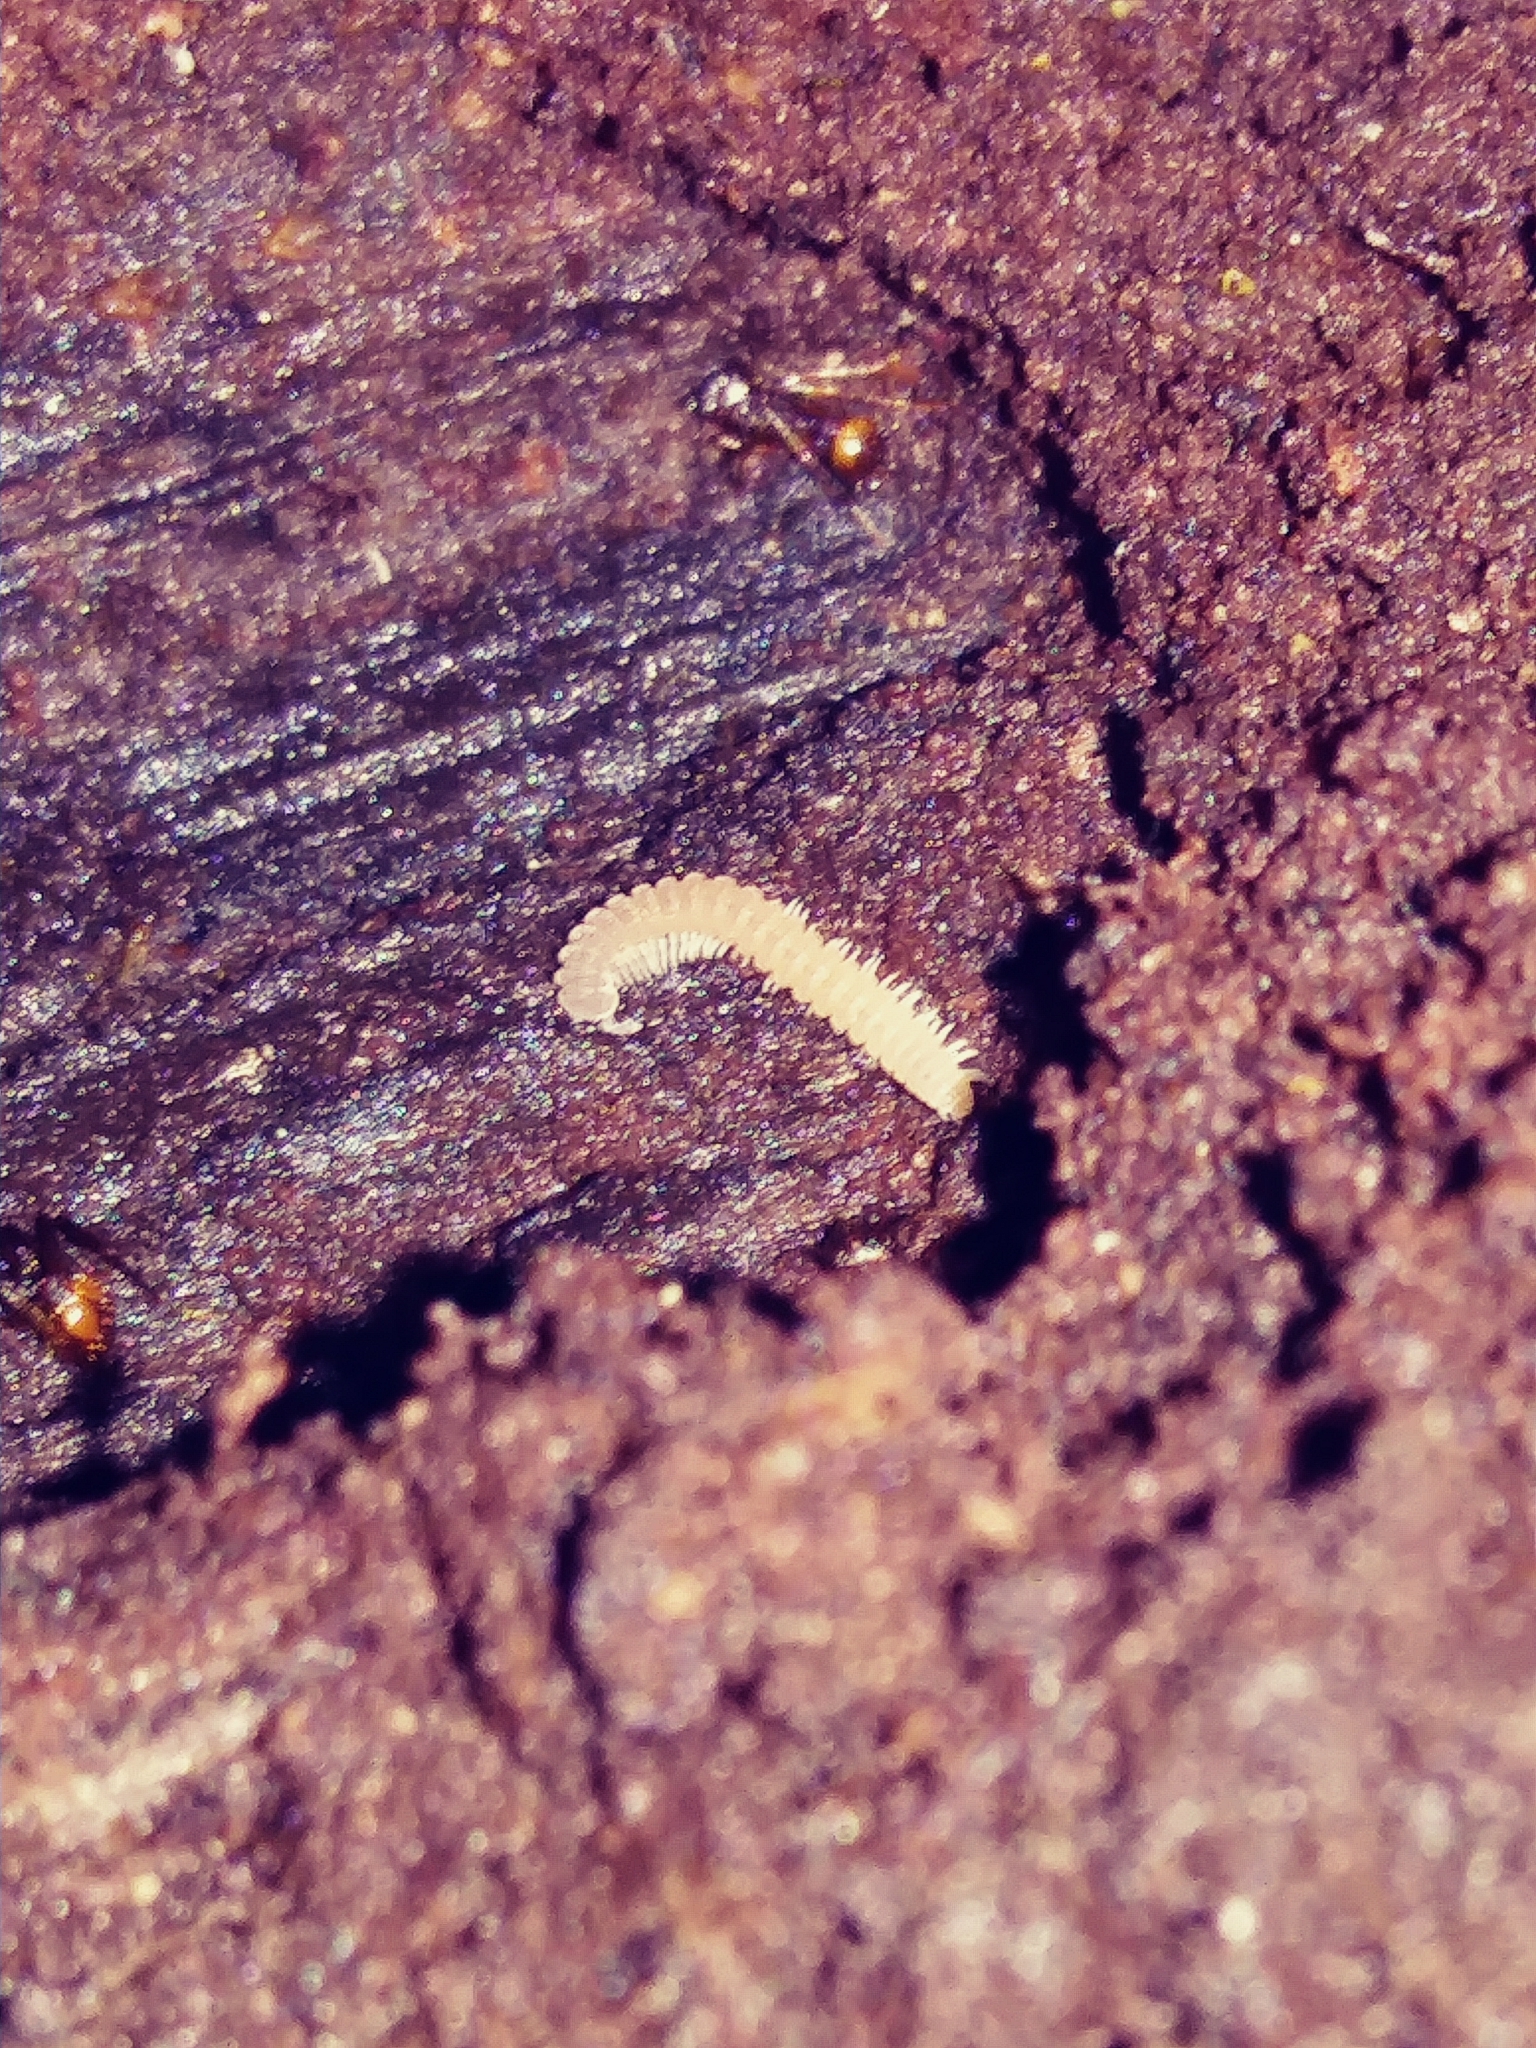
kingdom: Animalia
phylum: Arthropoda
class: Diplopoda
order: Chordeumatida
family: Striariidae
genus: Striaria
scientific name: Striaria columbiana
